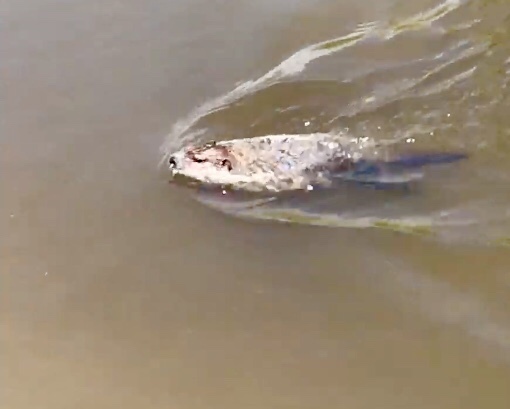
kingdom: Animalia
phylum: Chordata
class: Mammalia
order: Rodentia
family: Sciuridae
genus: Marmota
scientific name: Marmota monax
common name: Groundhog
